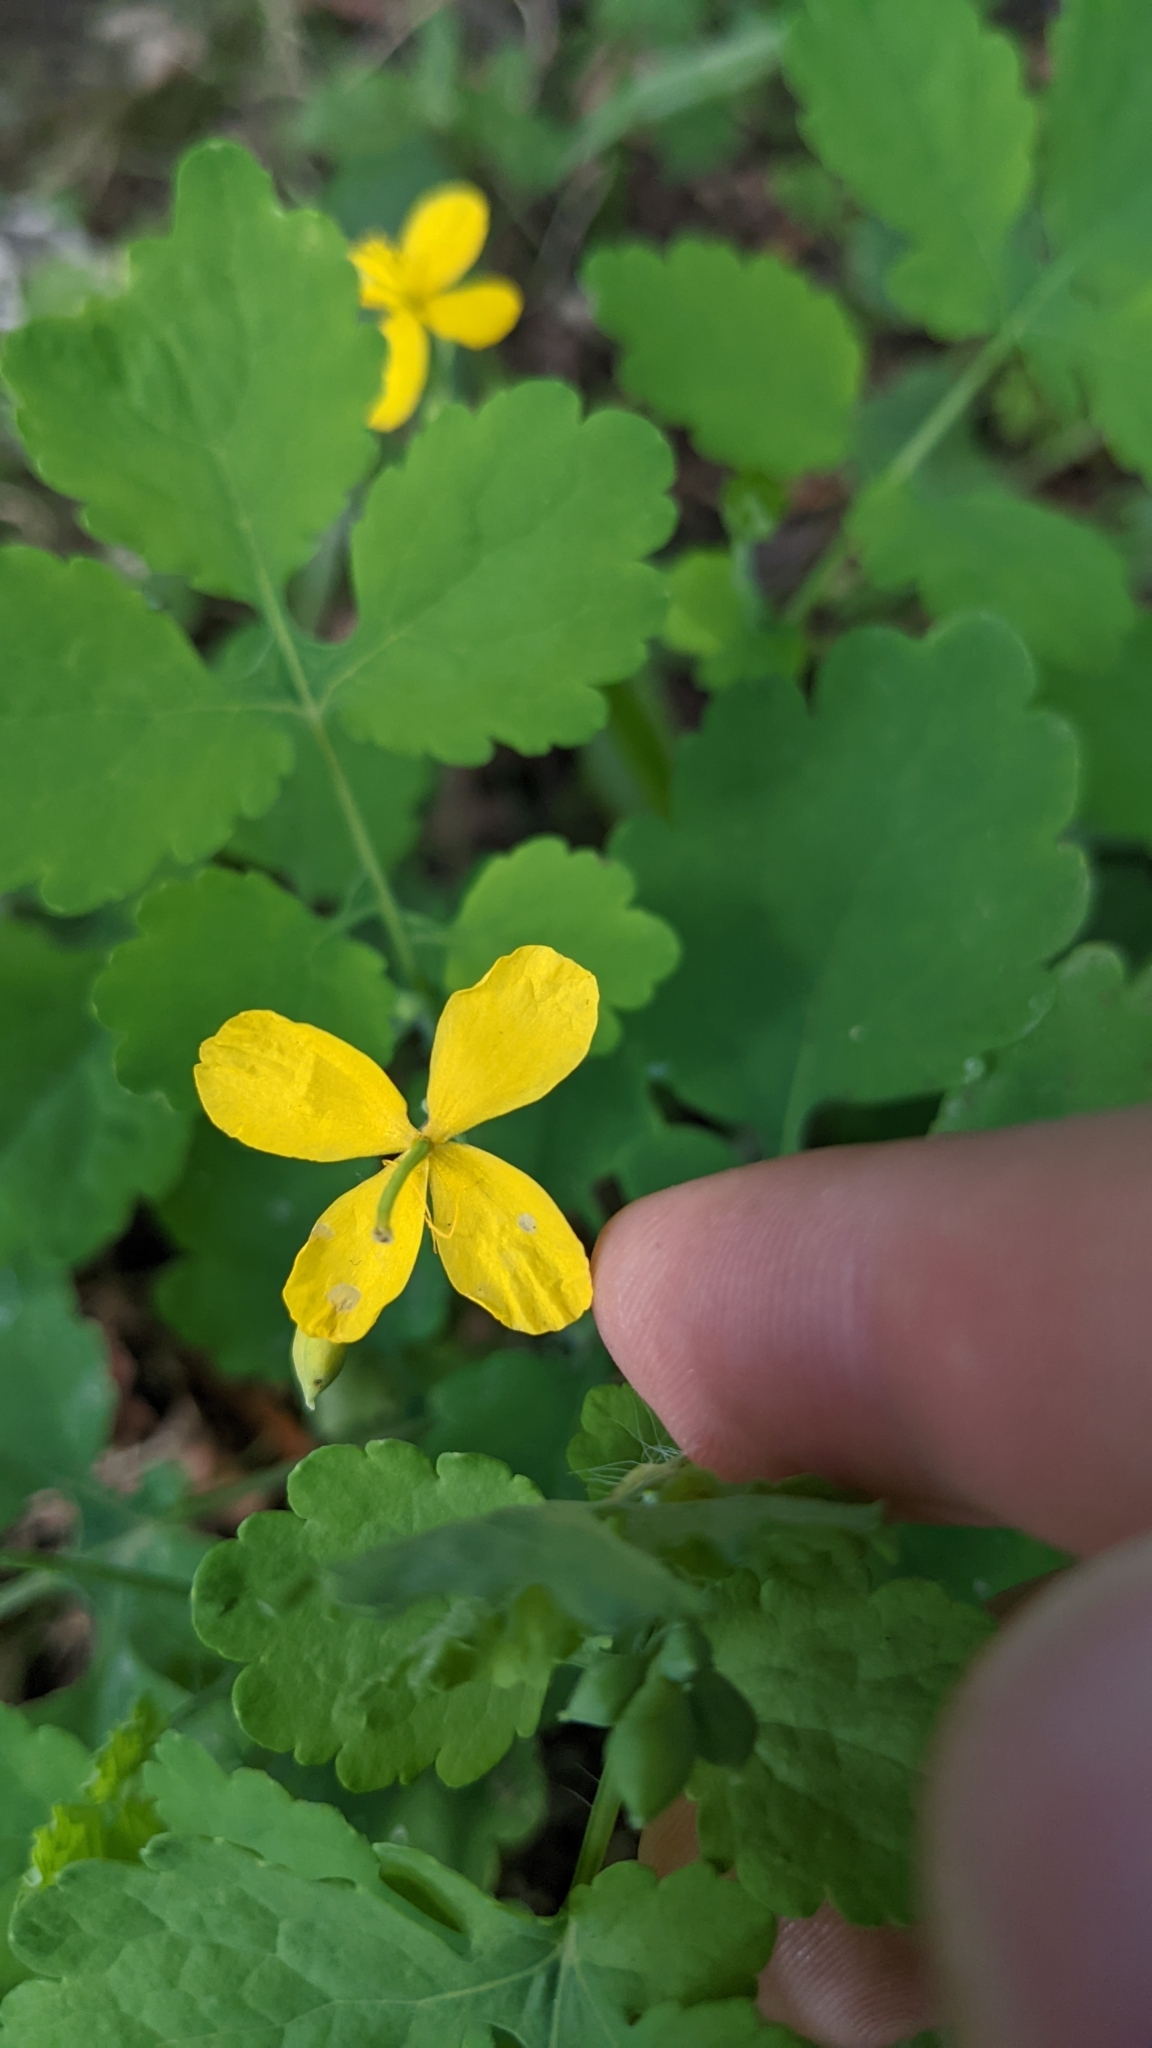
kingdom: Plantae
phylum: Tracheophyta
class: Magnoliopsida
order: Ranunculales
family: Papaveraceae
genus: Chelidonium
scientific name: Chelidonium majus
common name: Greater celandine
